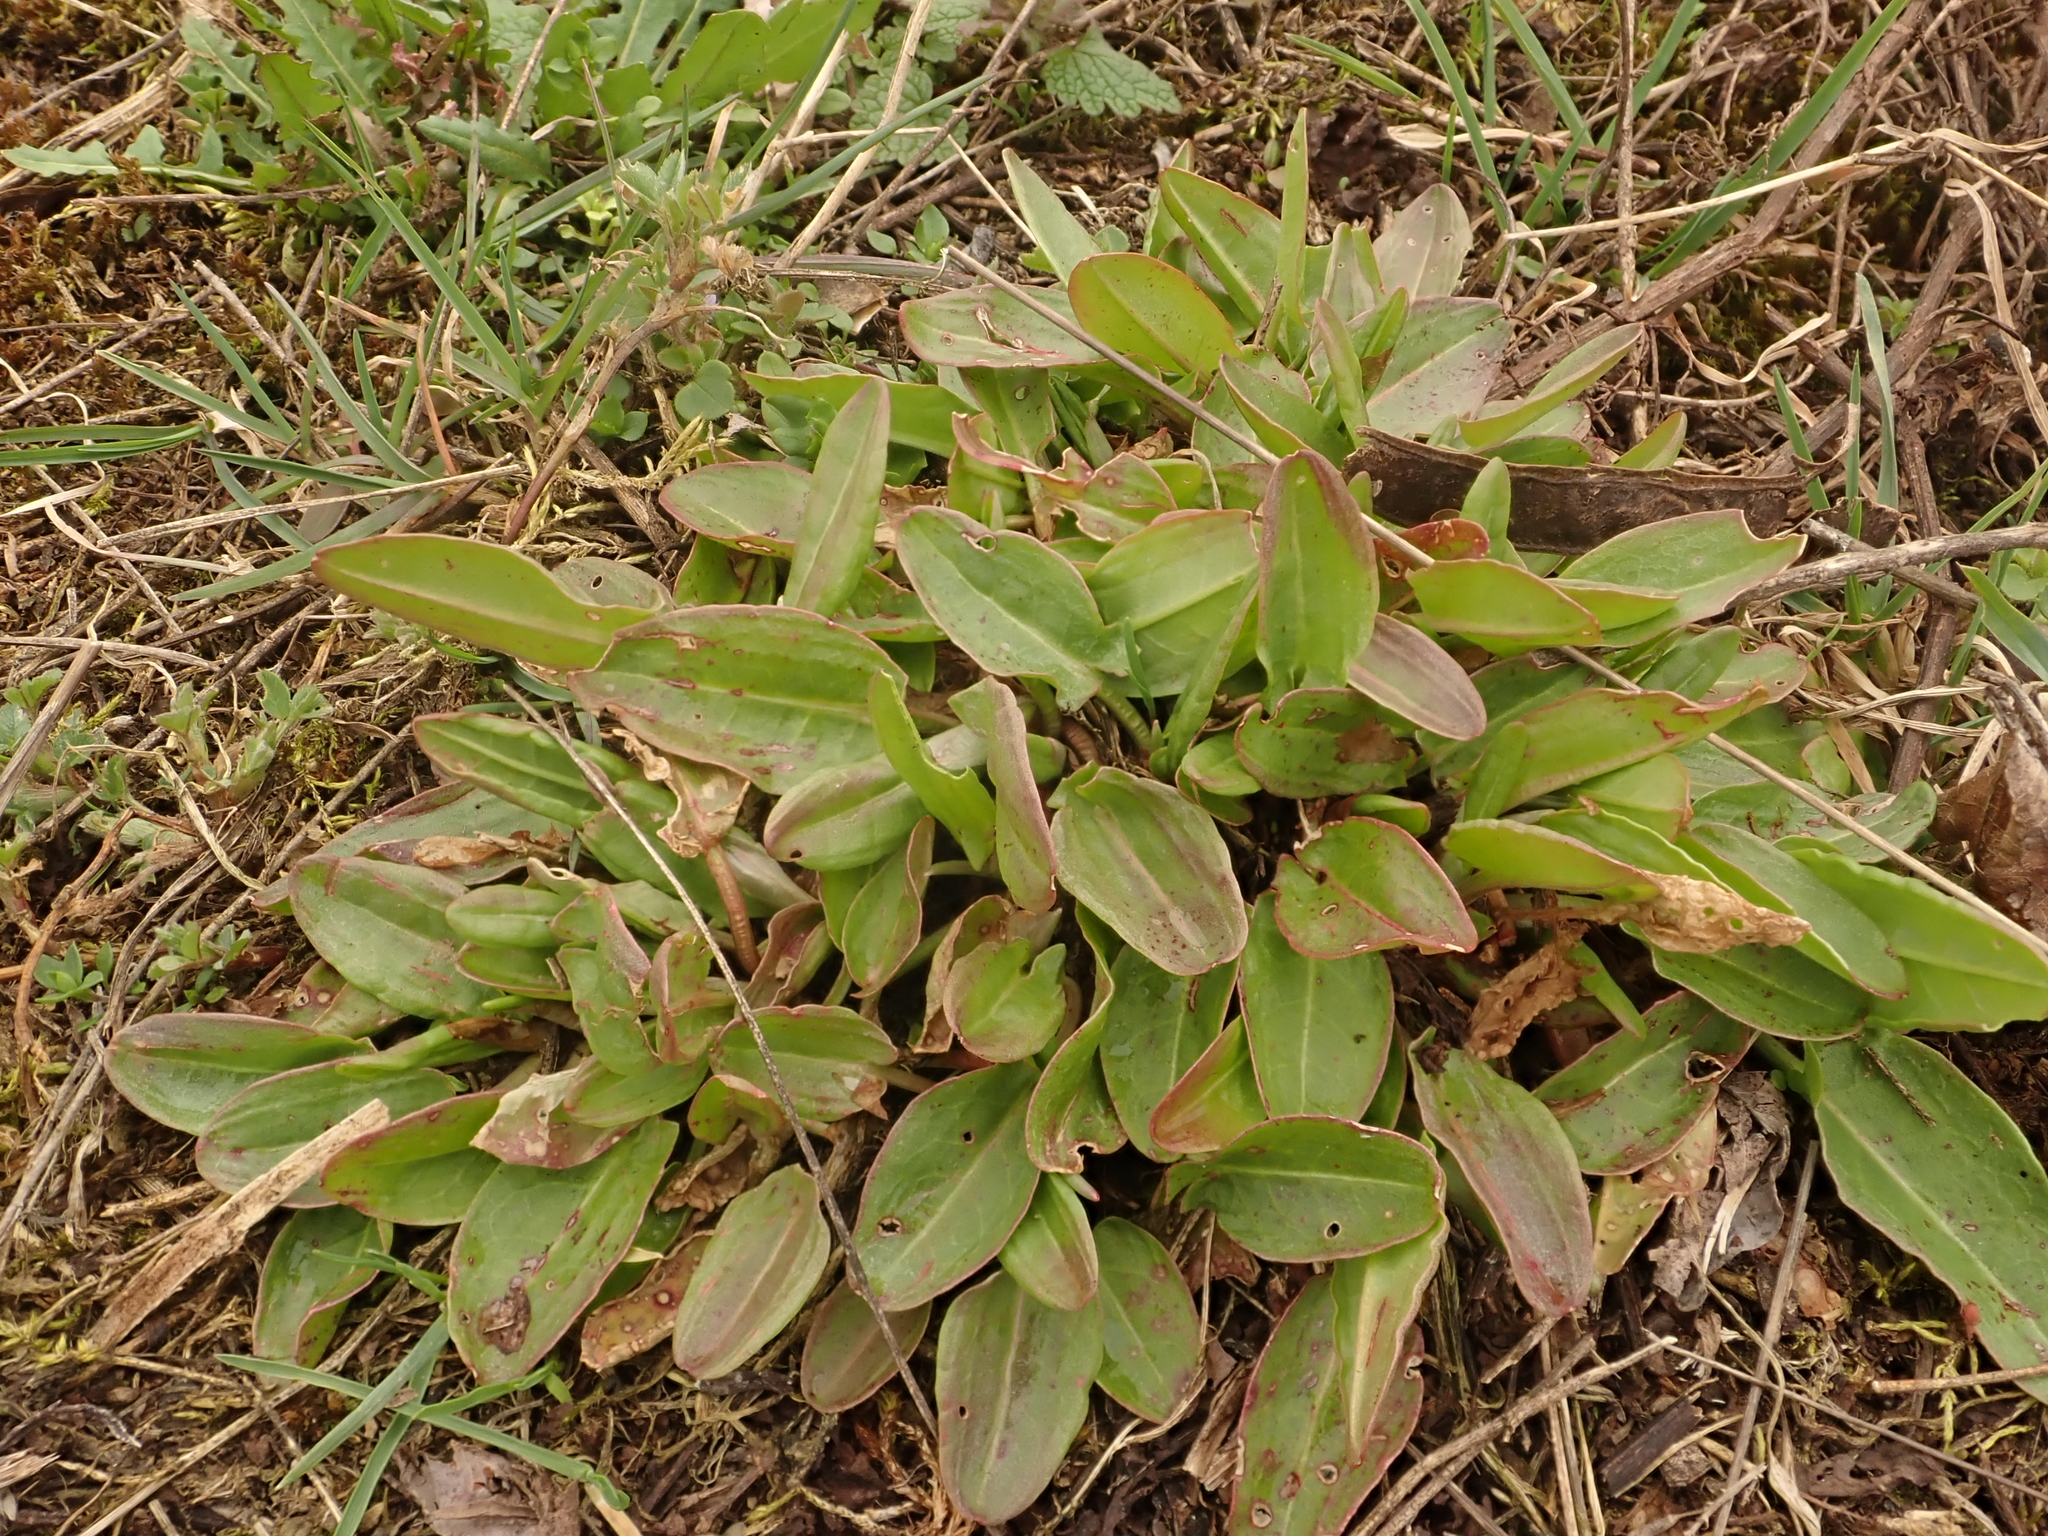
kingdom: Plantae
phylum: Tracheophyta
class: Magnoliopsida
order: Caryophyllales
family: Polygonaceae
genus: Rumex
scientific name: Rumex acetosa
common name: Garden sorrel
